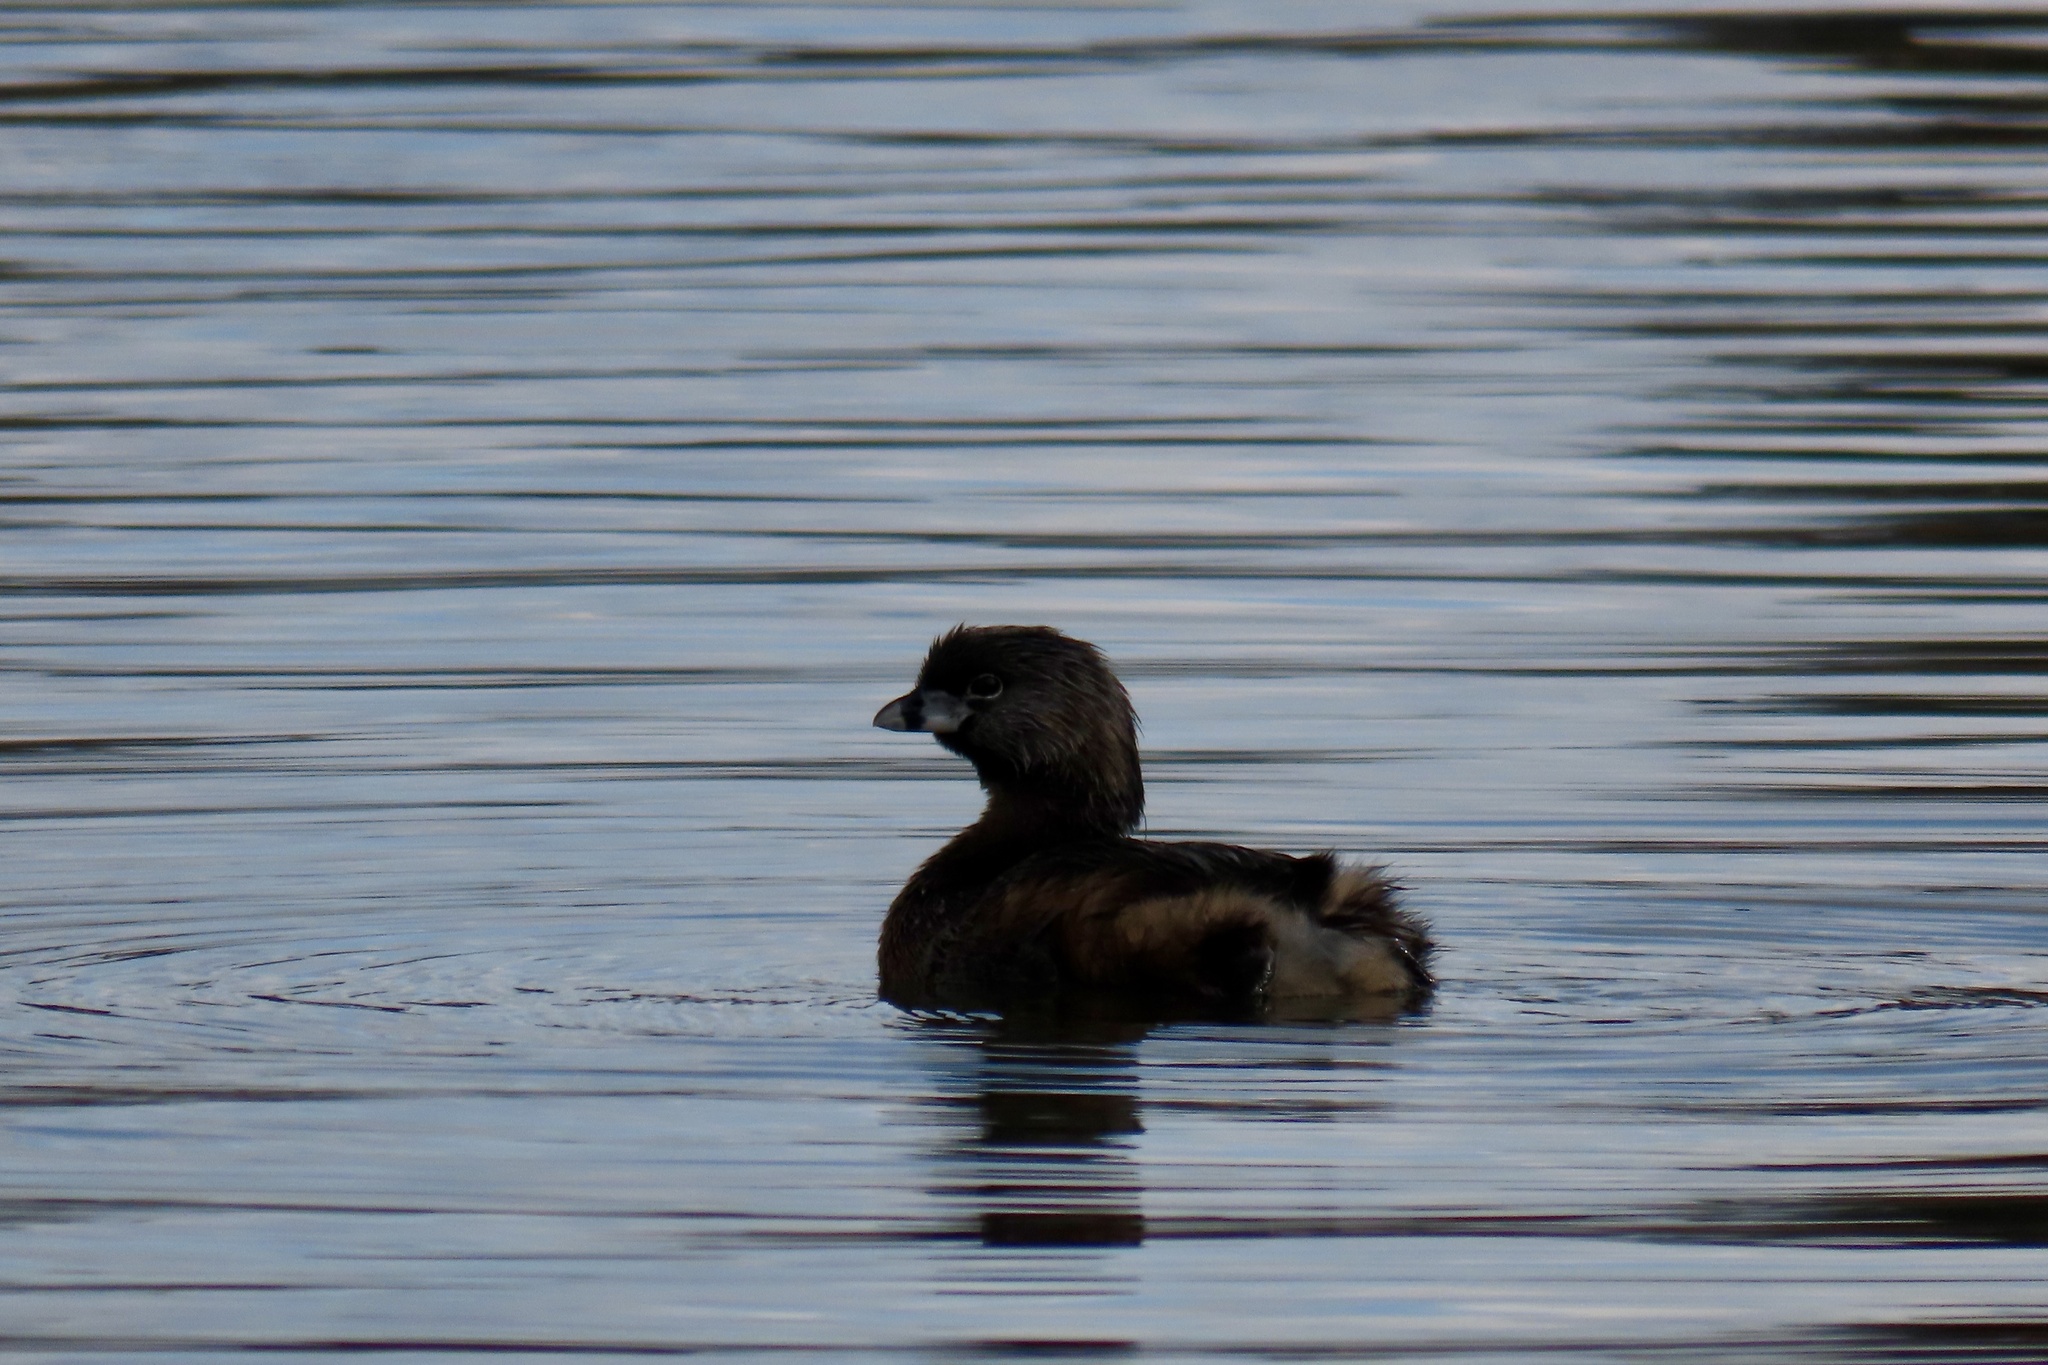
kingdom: Animalia
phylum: Chordata
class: Aves
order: Podicipediformes
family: Podicipedidae
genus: Podilymbus
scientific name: Podilymbus podiceps
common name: Pied-billed grebe
